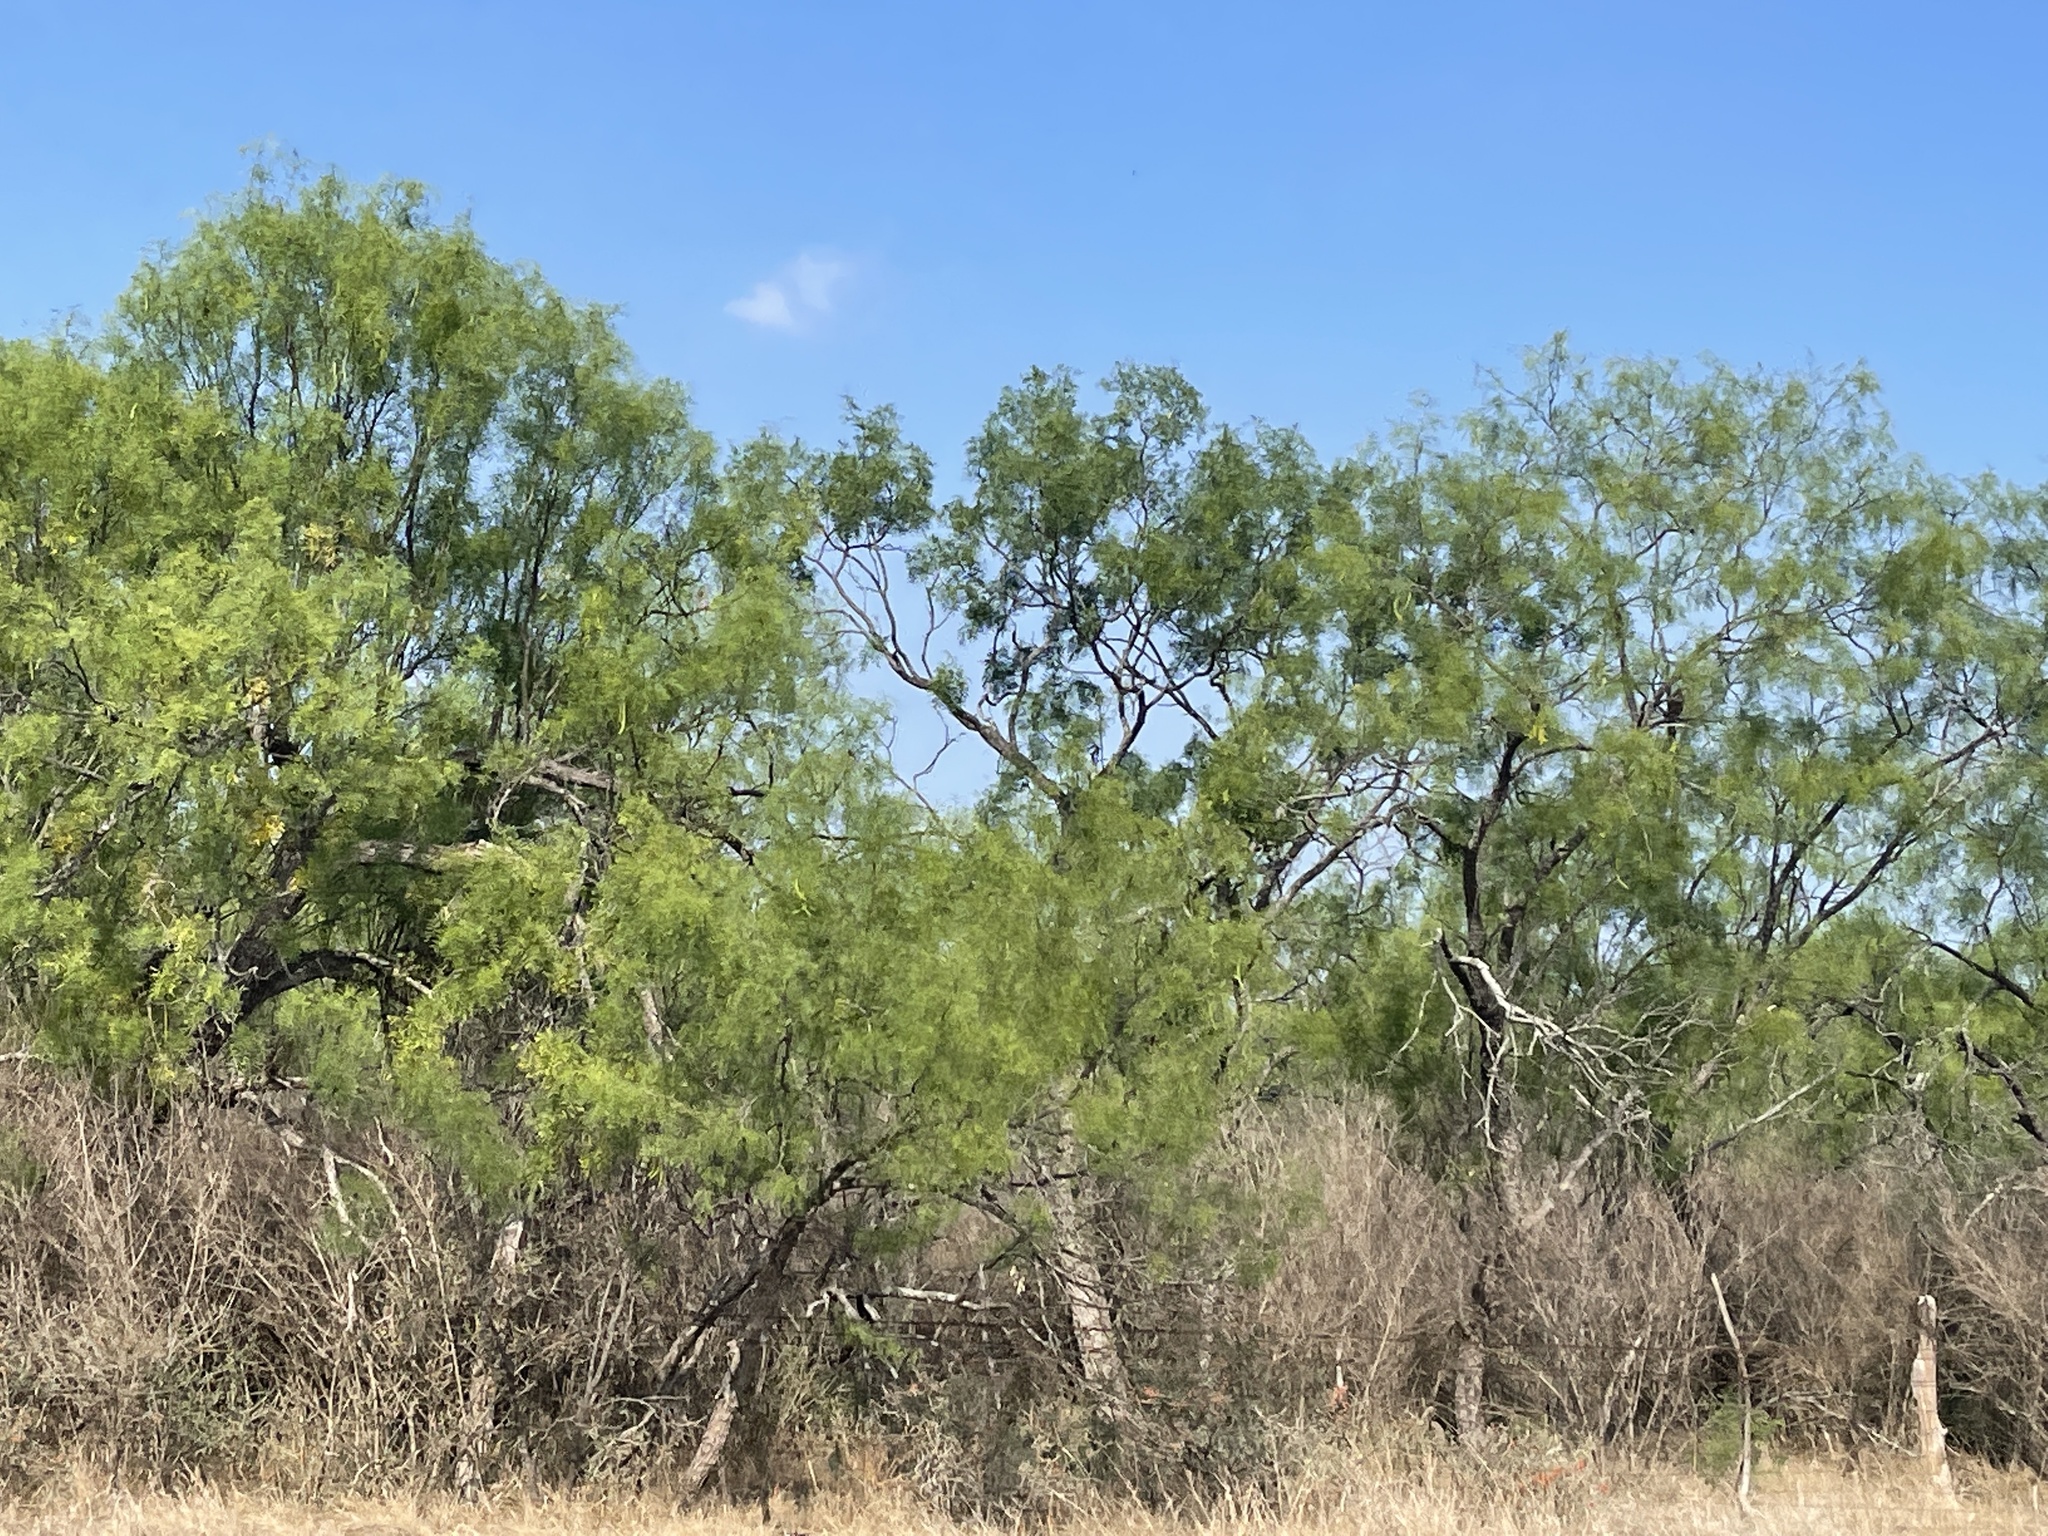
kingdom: Plantae
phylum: Tracheophyta
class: Magnoliopsida
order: Fabales
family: Fabaceae
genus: Prosopis
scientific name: Prosopis glandulosa
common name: Honey mesquite
